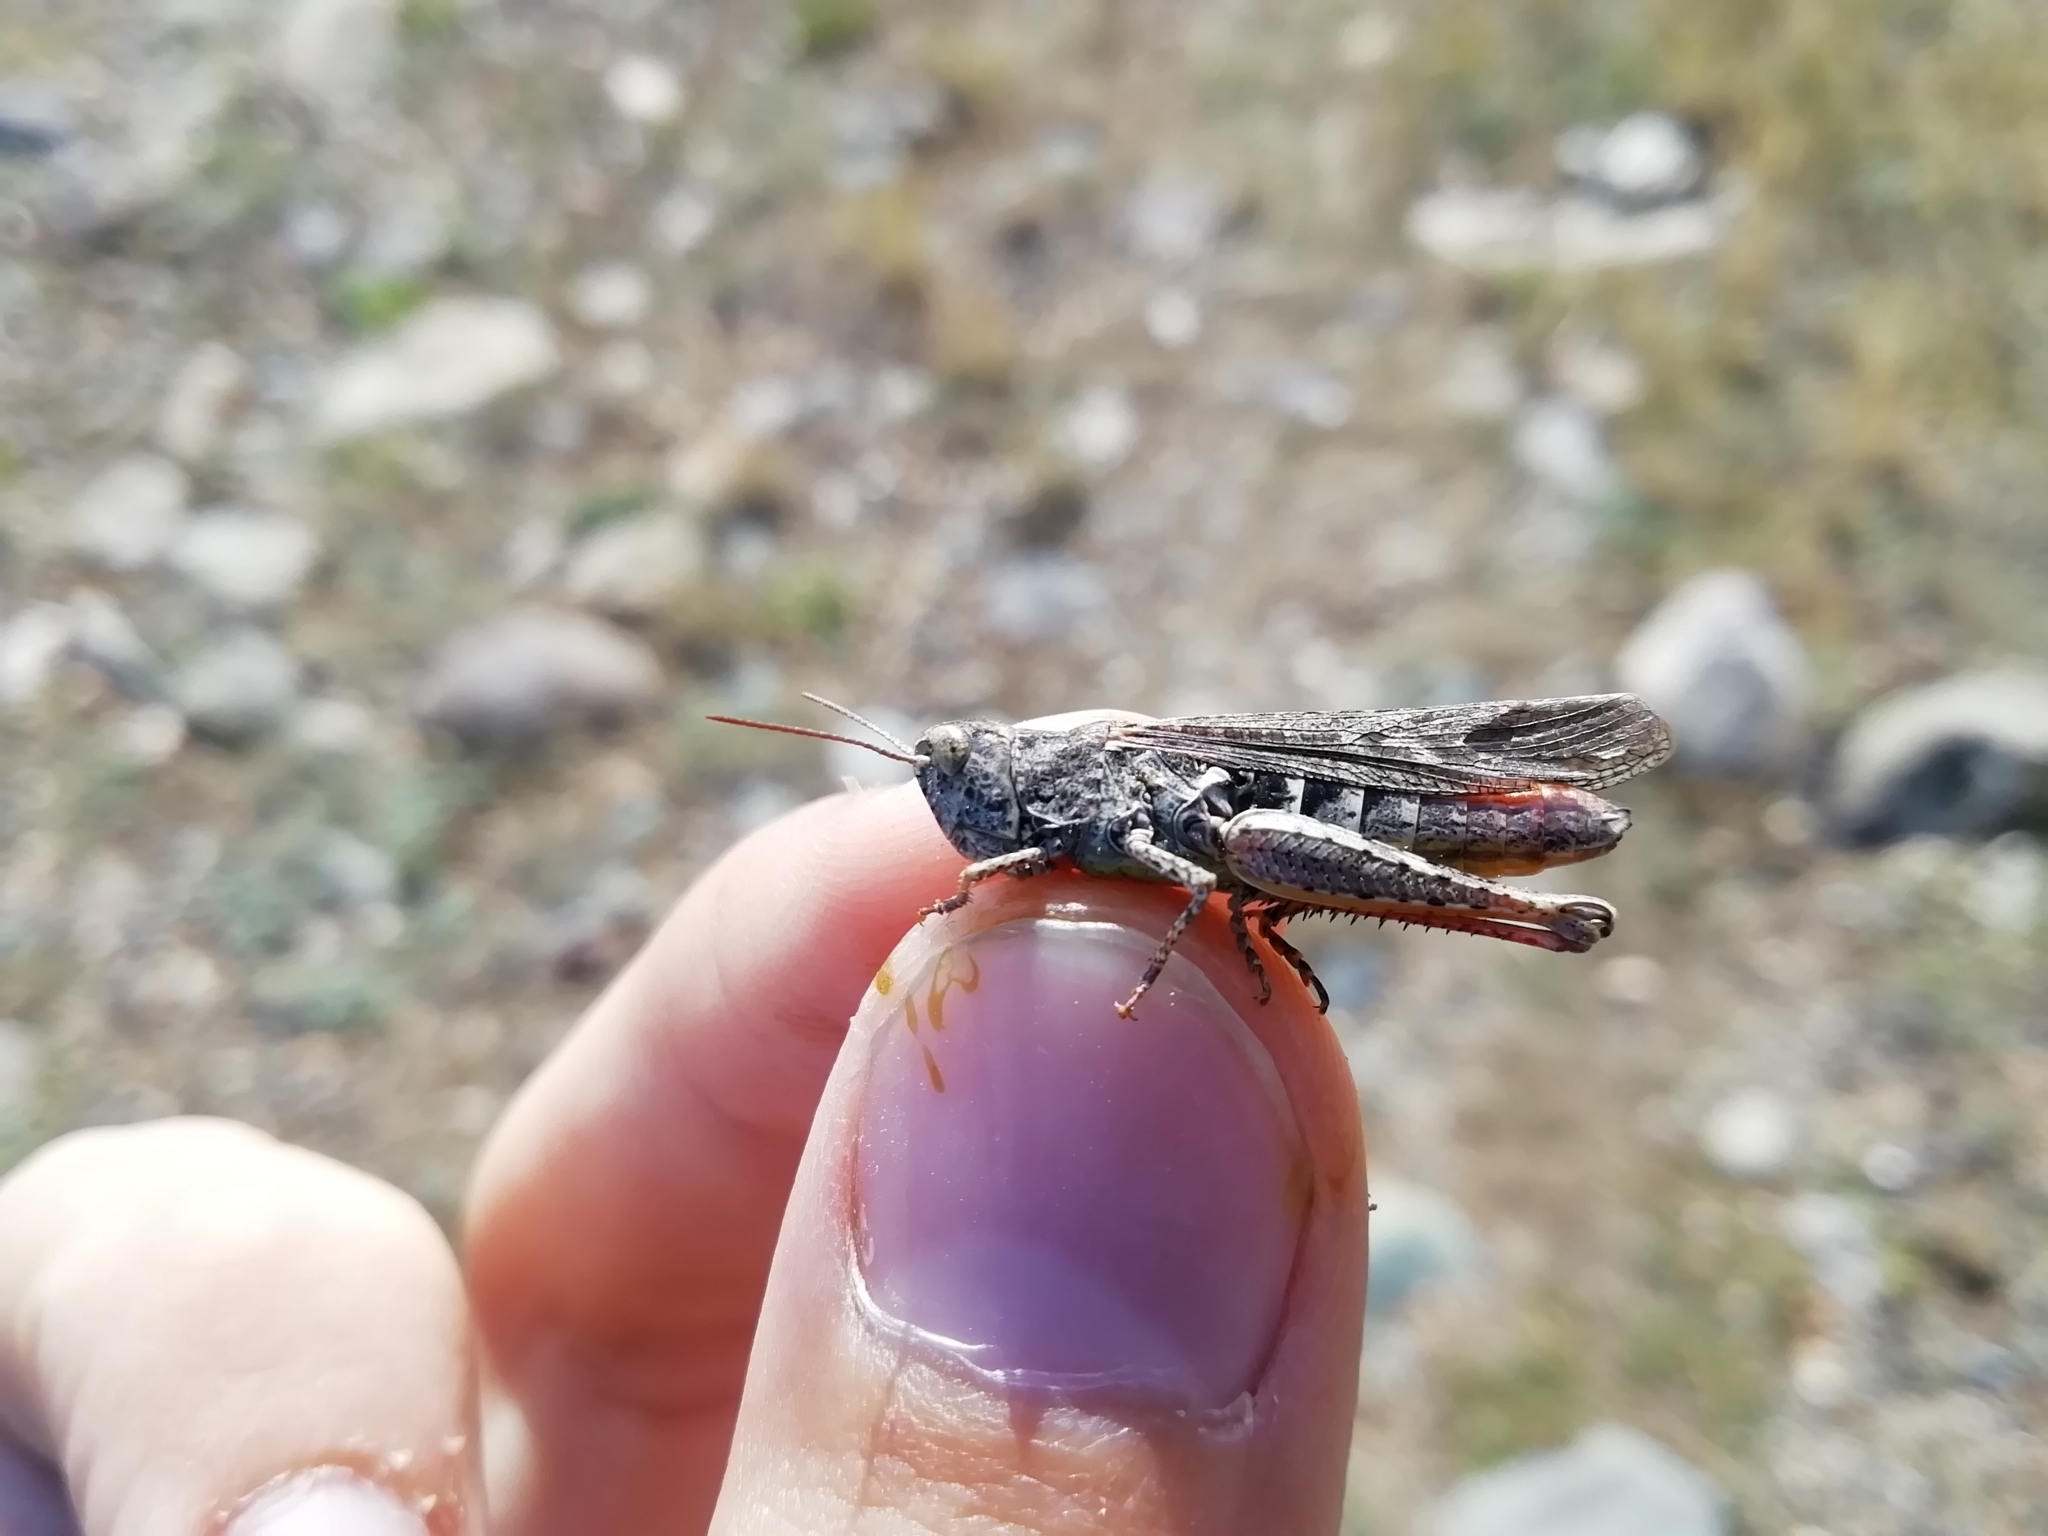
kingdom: Animalia
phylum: Arthropoda
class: Insecta
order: Orthoptera
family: Acrididae
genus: Glyptobothrus
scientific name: Glyptobothrus
